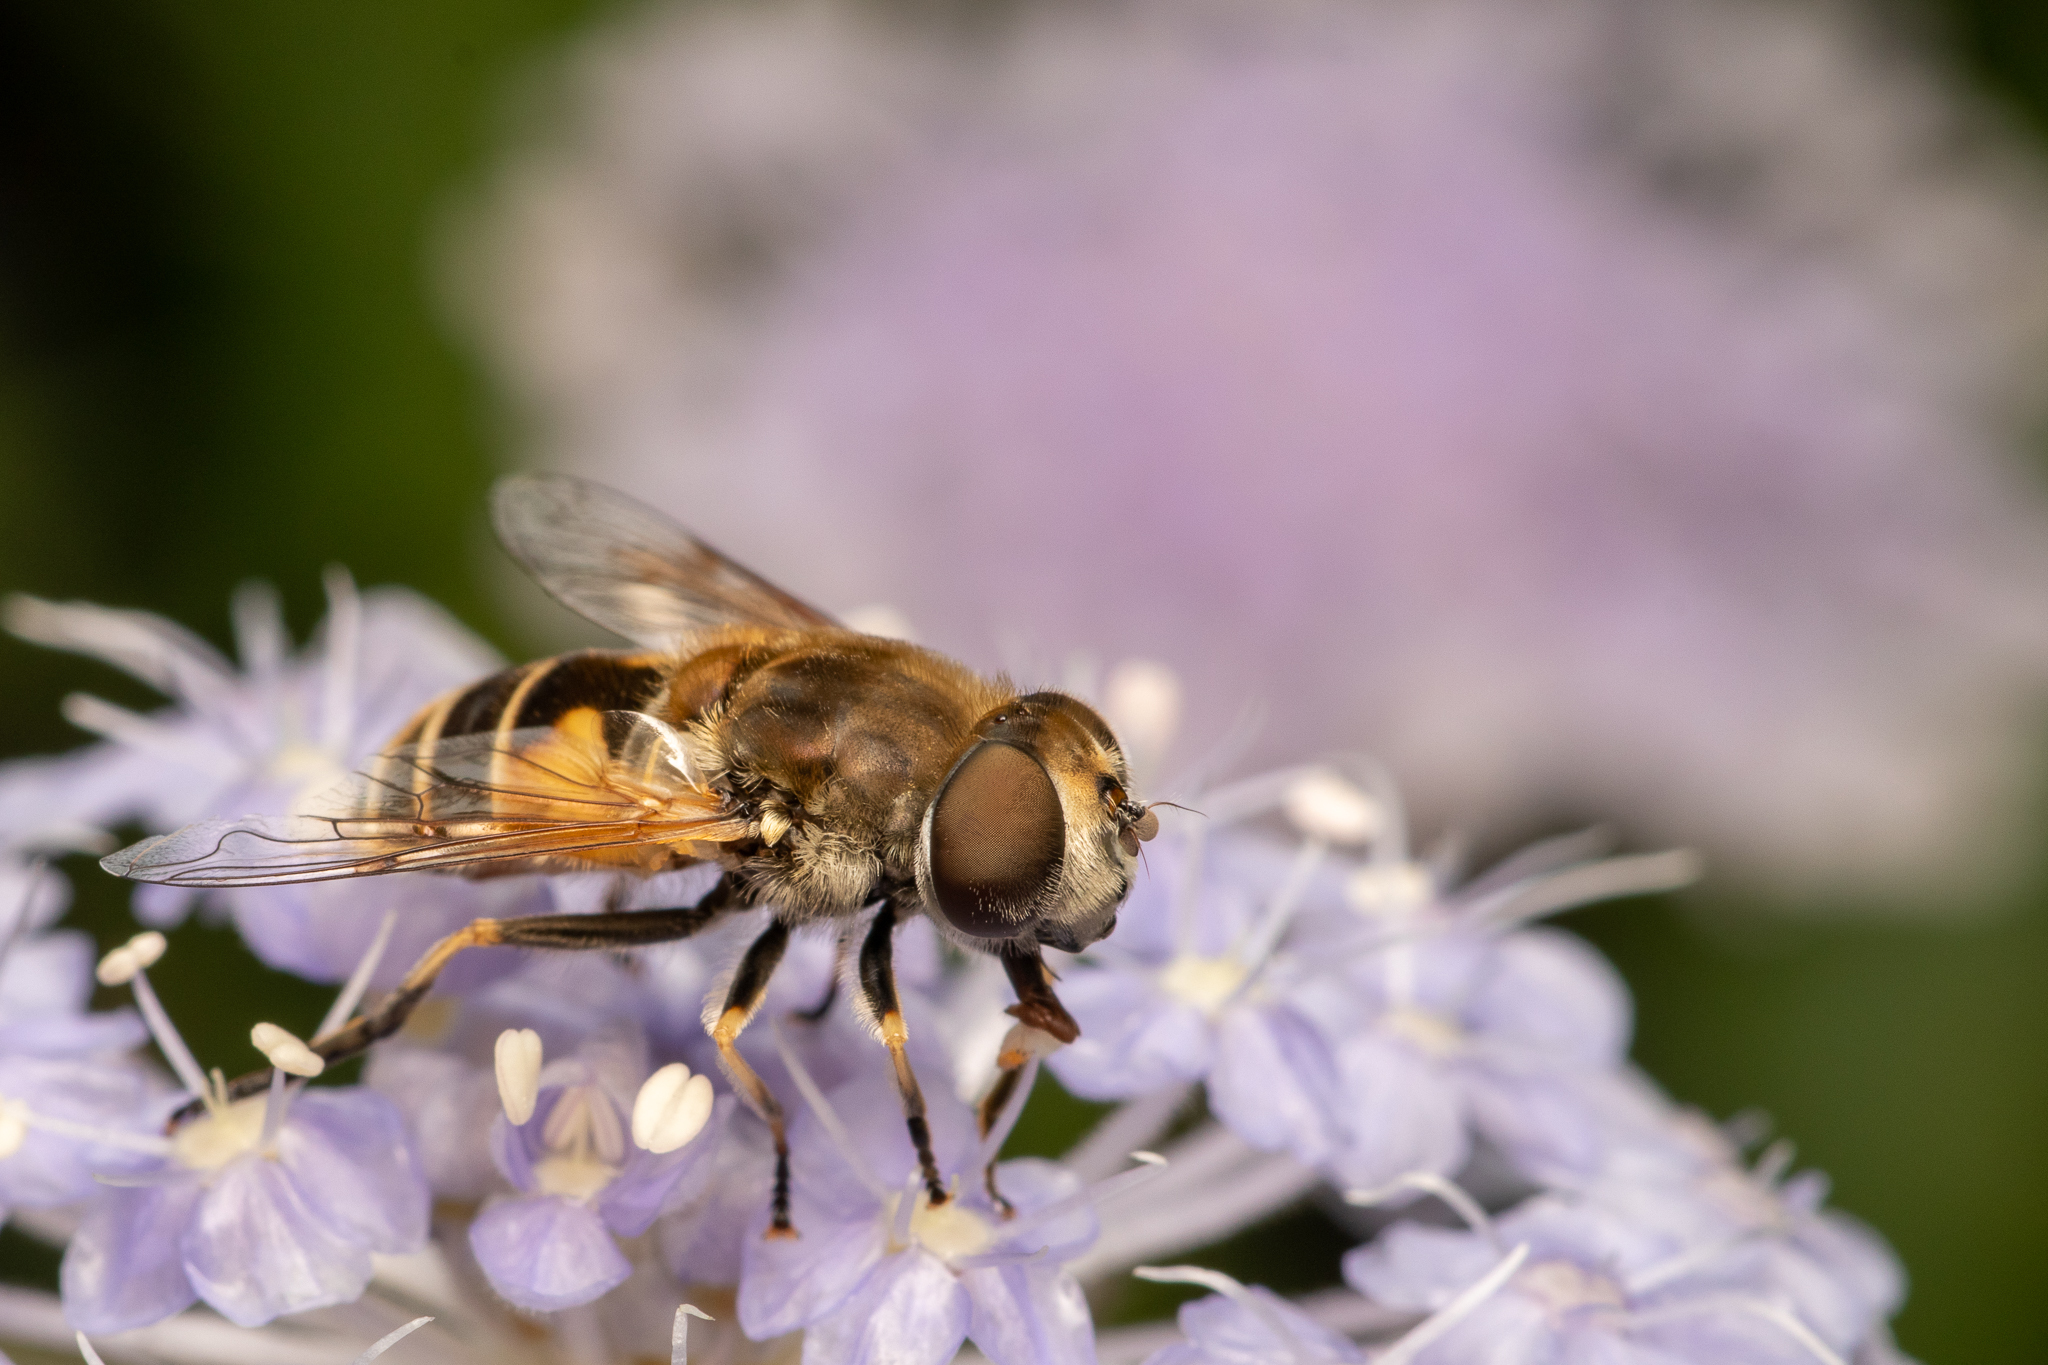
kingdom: Animalia
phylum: Arthropoda
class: Insecta
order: Diptera
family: Syrphidae
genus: Eristalis
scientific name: Eristalis arbustorum
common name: Hover fly
